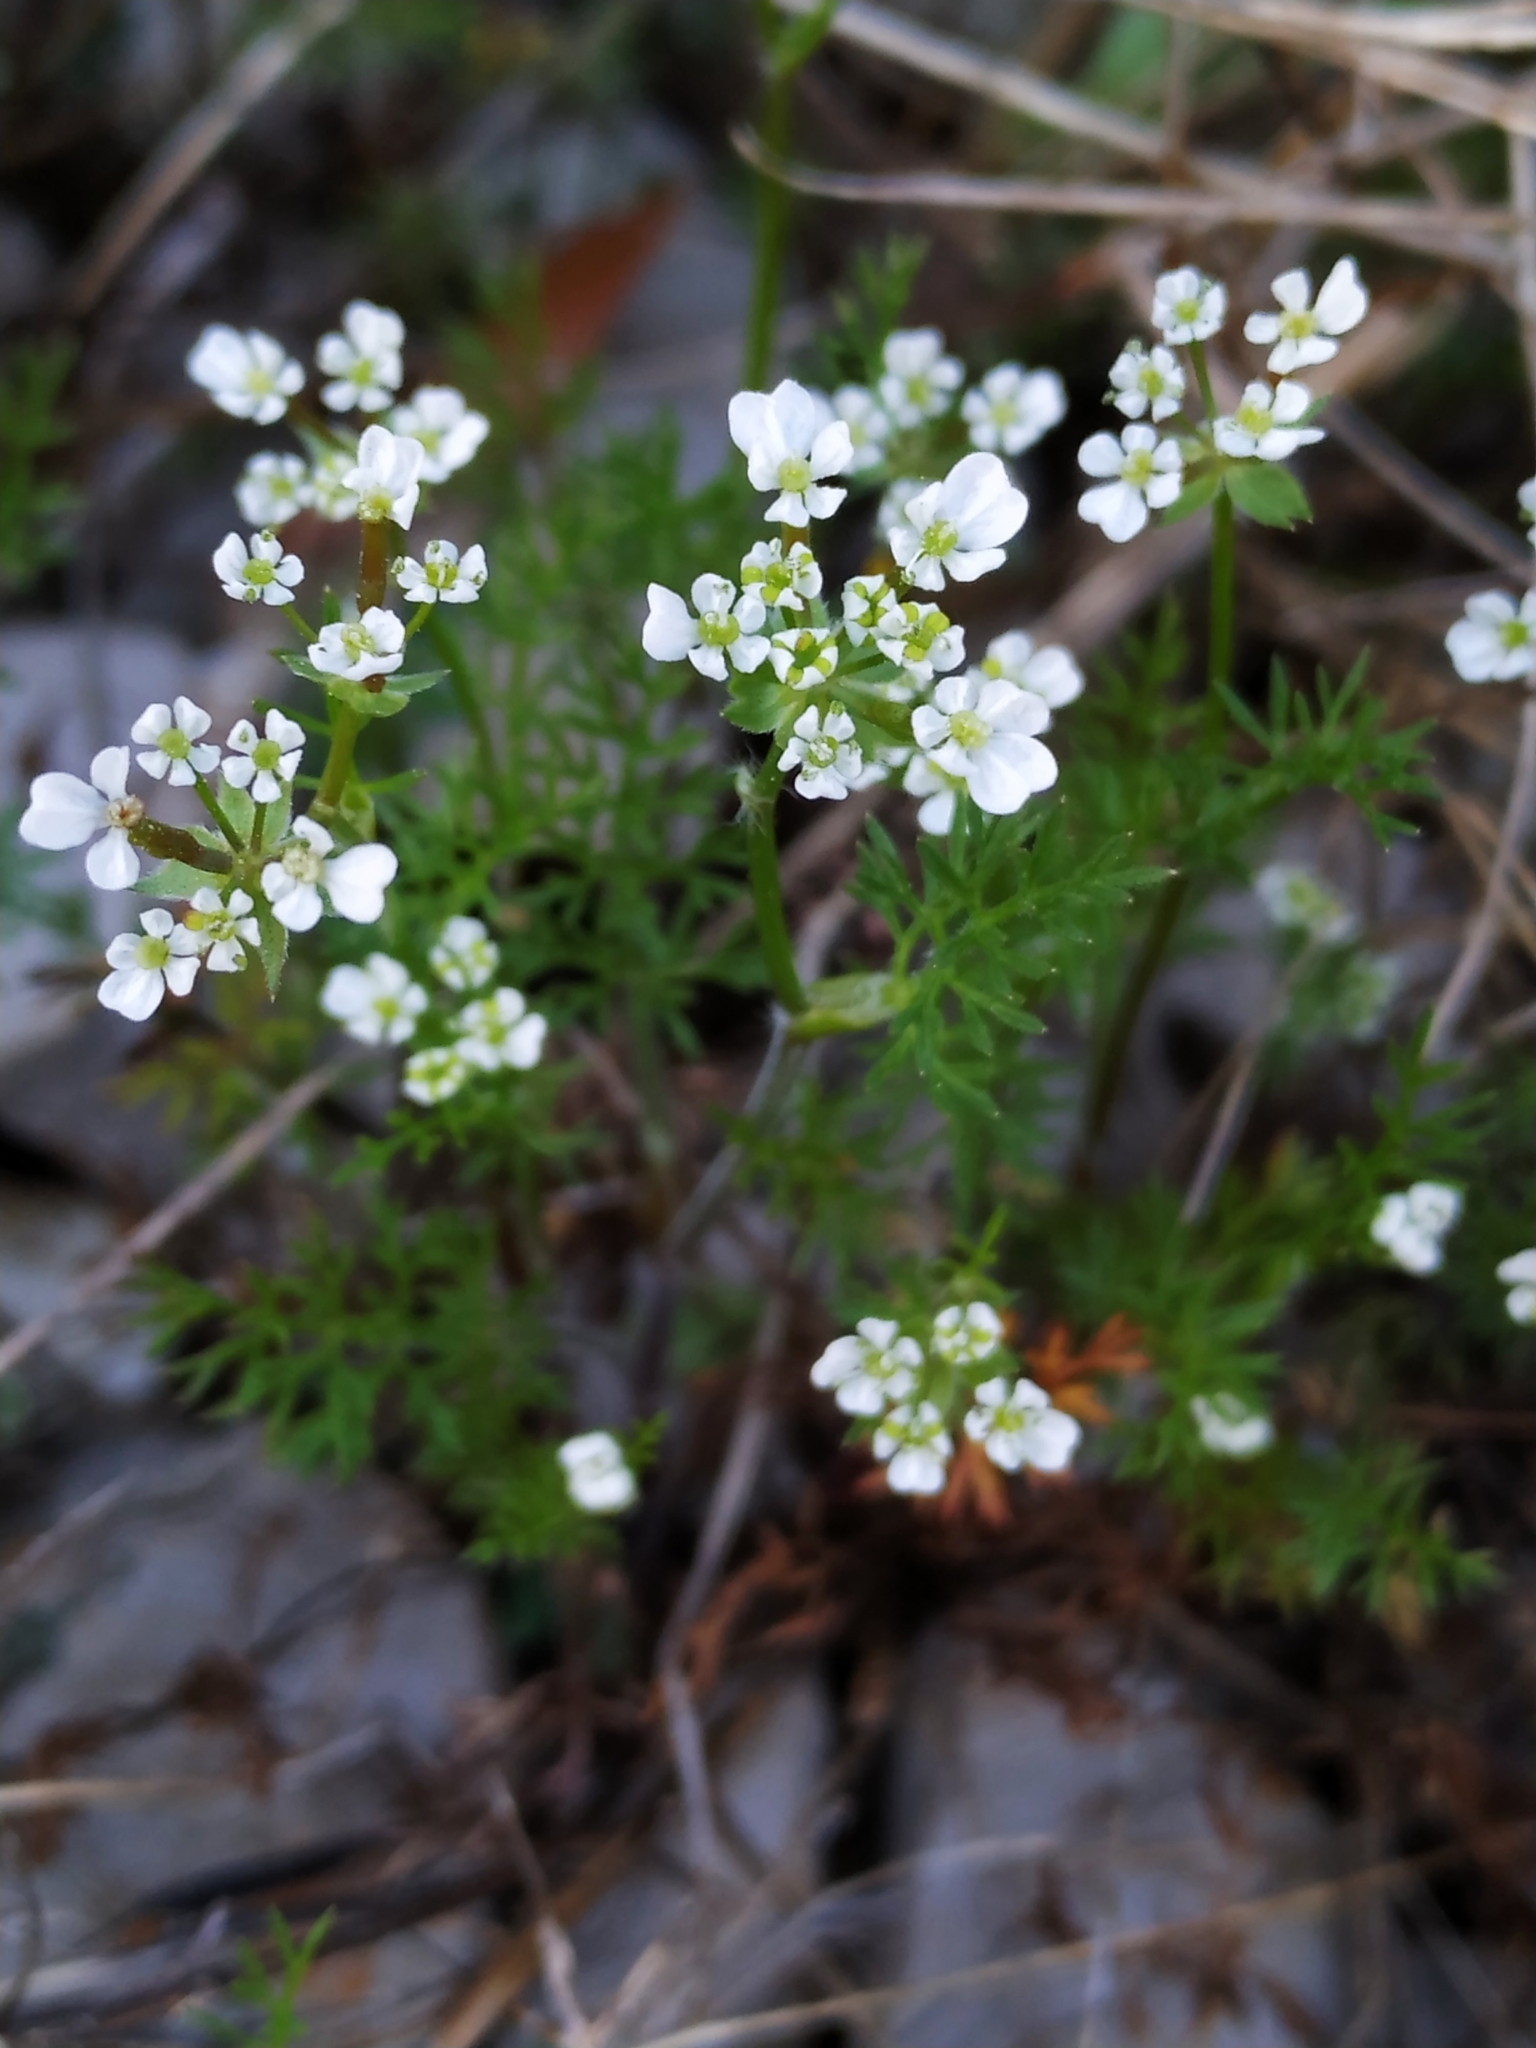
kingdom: Plantae
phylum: Tracheophyta
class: Magnoliopsida
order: Apiales
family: Apiaceae
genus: Scandix
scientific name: Scandix pecten-veneris
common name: Shepherd's-needle
